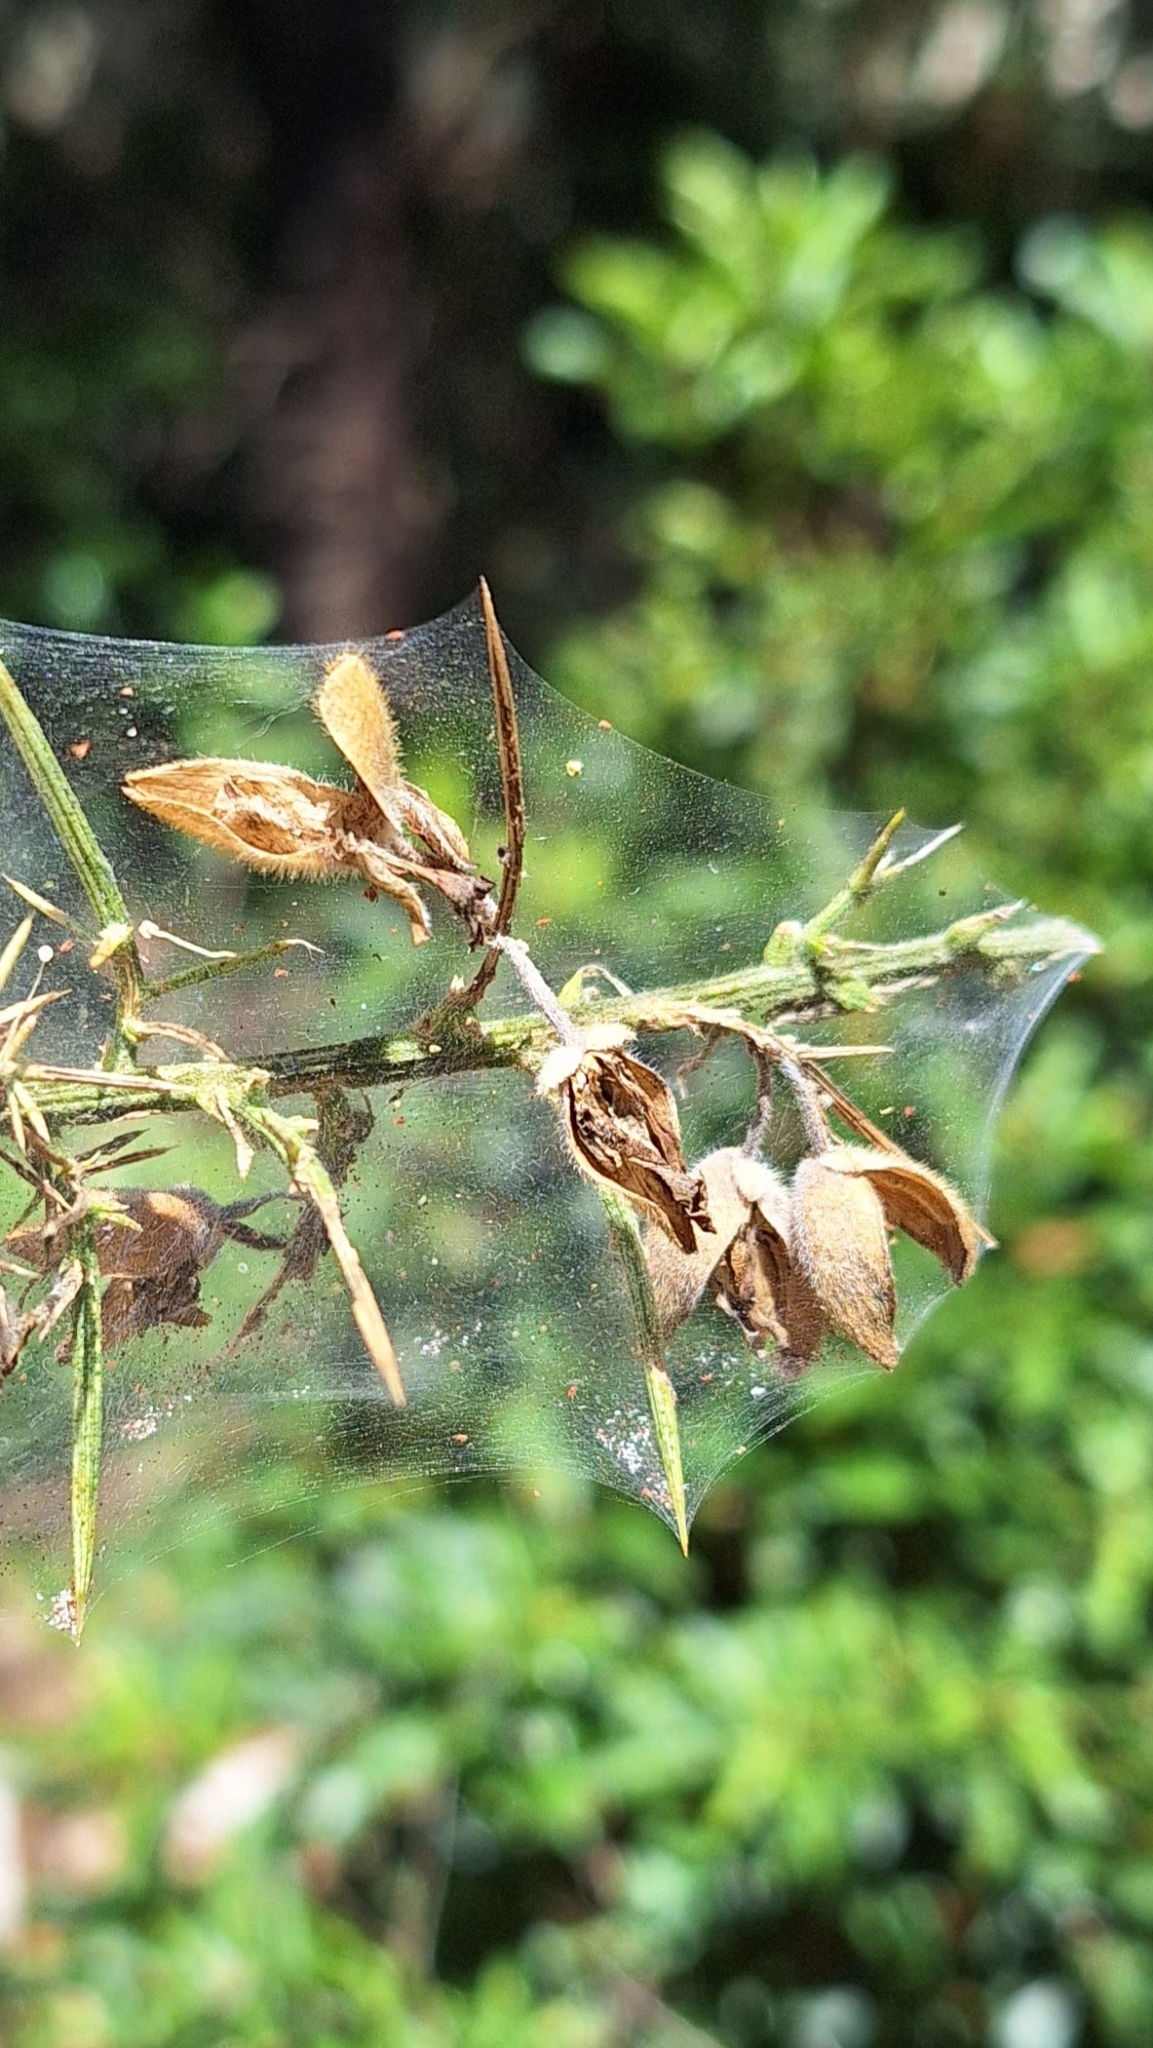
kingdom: Animalia
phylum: Arthropoda
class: Arachnida
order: Trombidiformes
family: Tetranychidae
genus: Tetranychus
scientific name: Tetranychus lintearius
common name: Gorse spider mite
